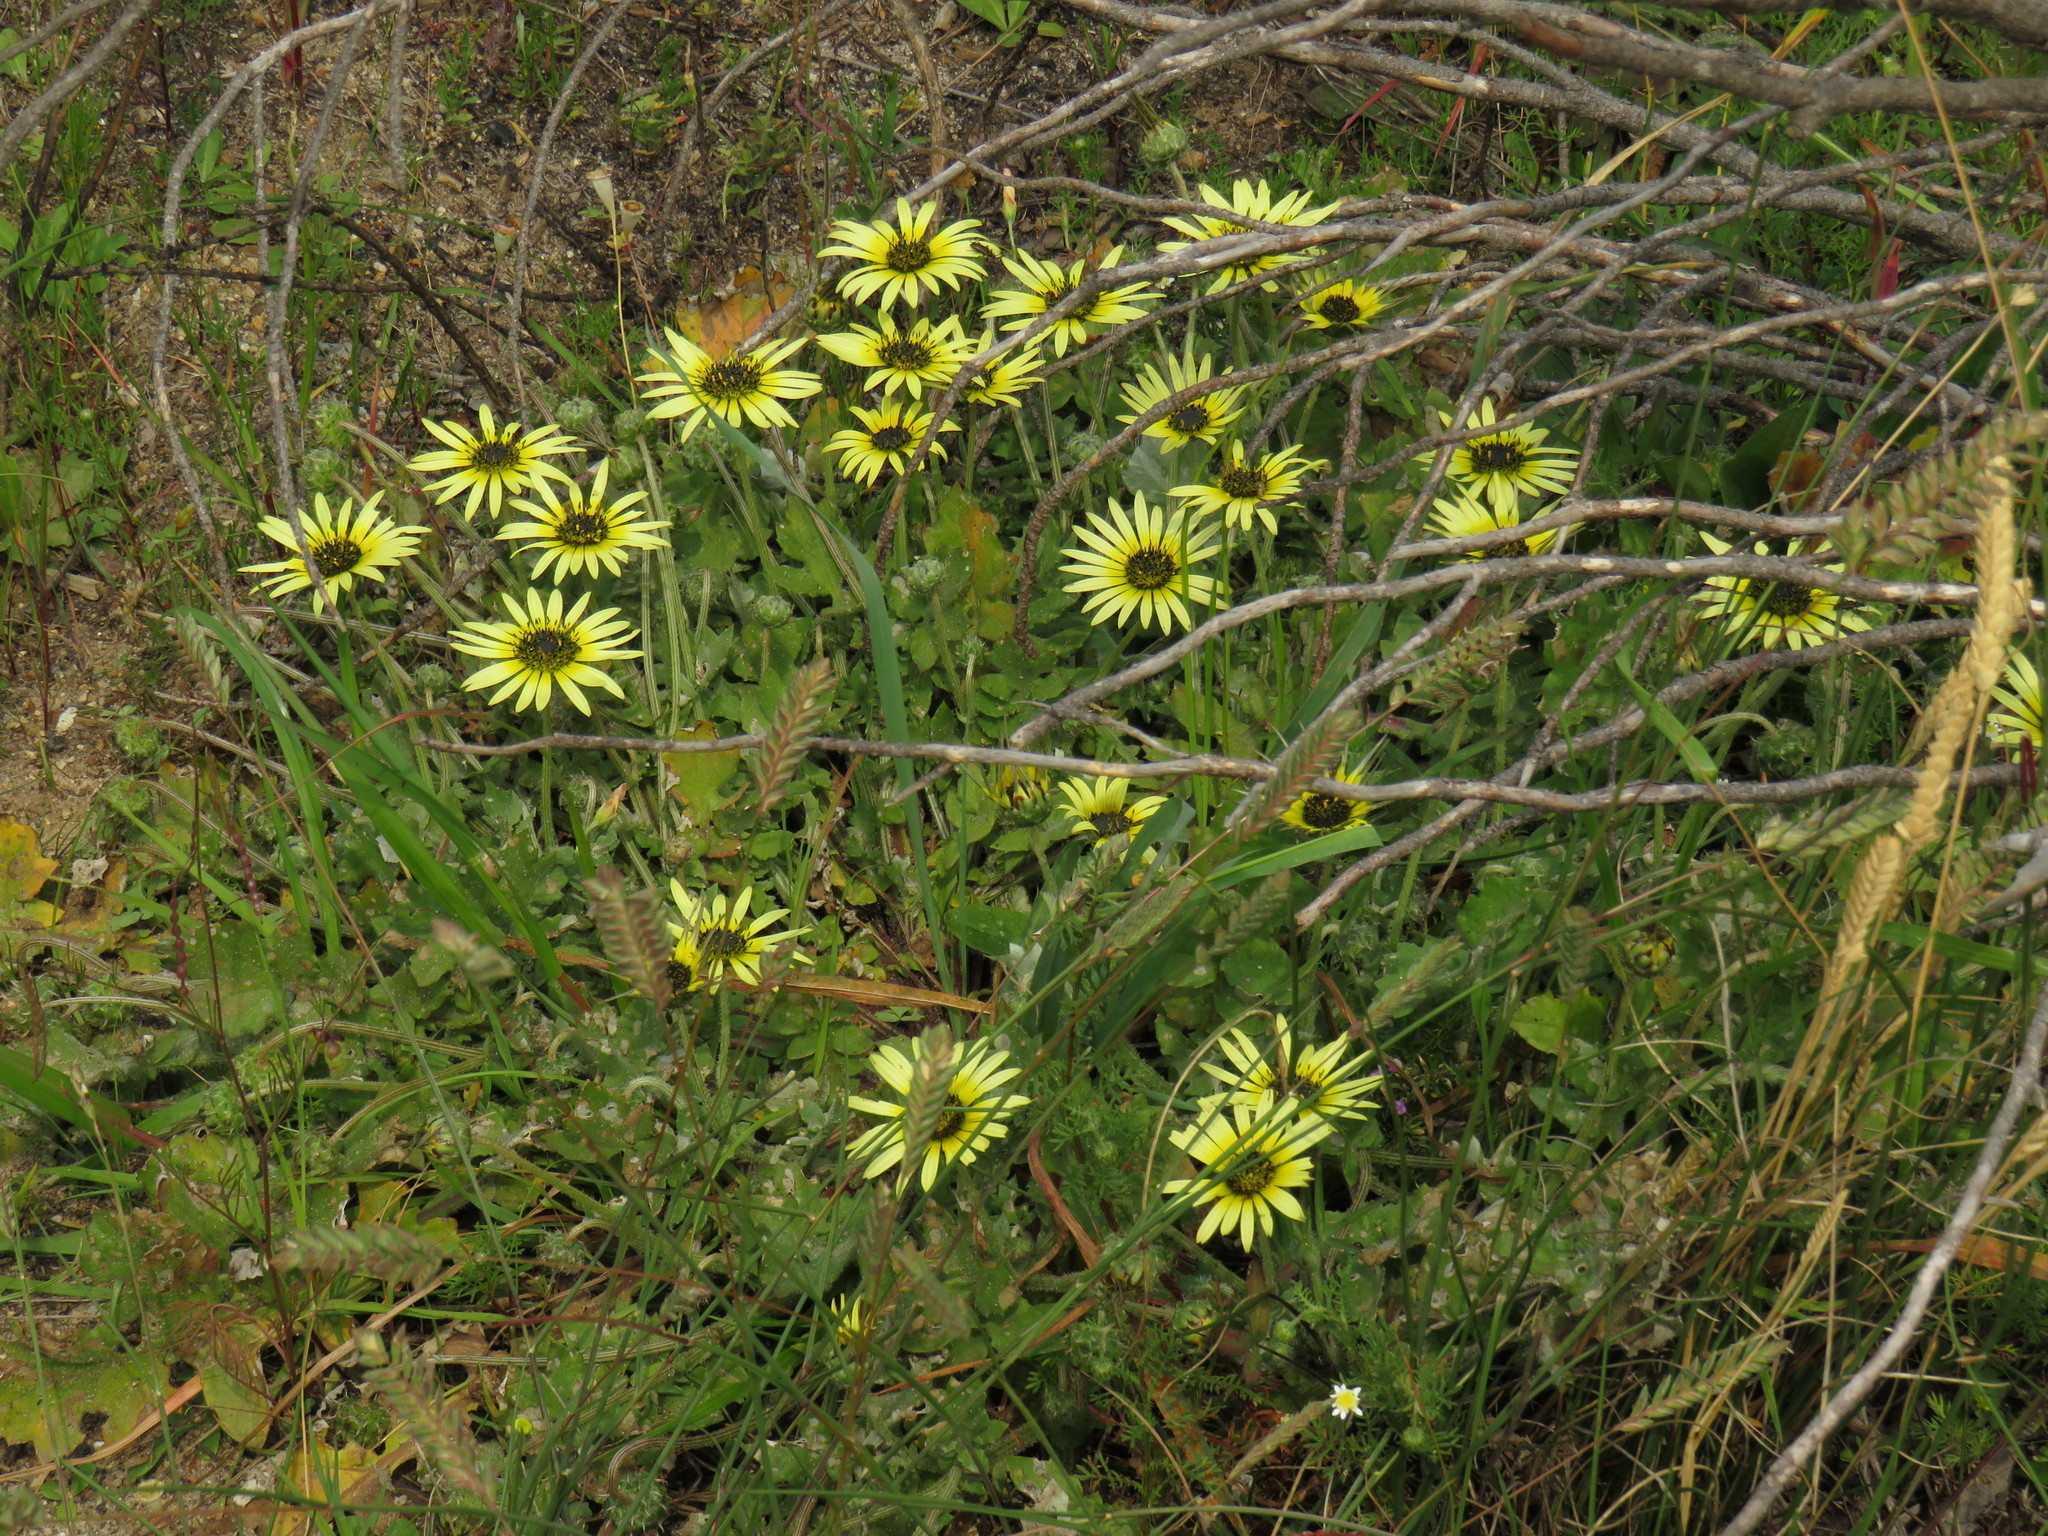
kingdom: Plantae
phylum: Tracheophyta
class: Magnoliopsida
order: Asterales
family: Asteraceae
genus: Arctotheca
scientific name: Arctotheca calendula
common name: Capeweed
